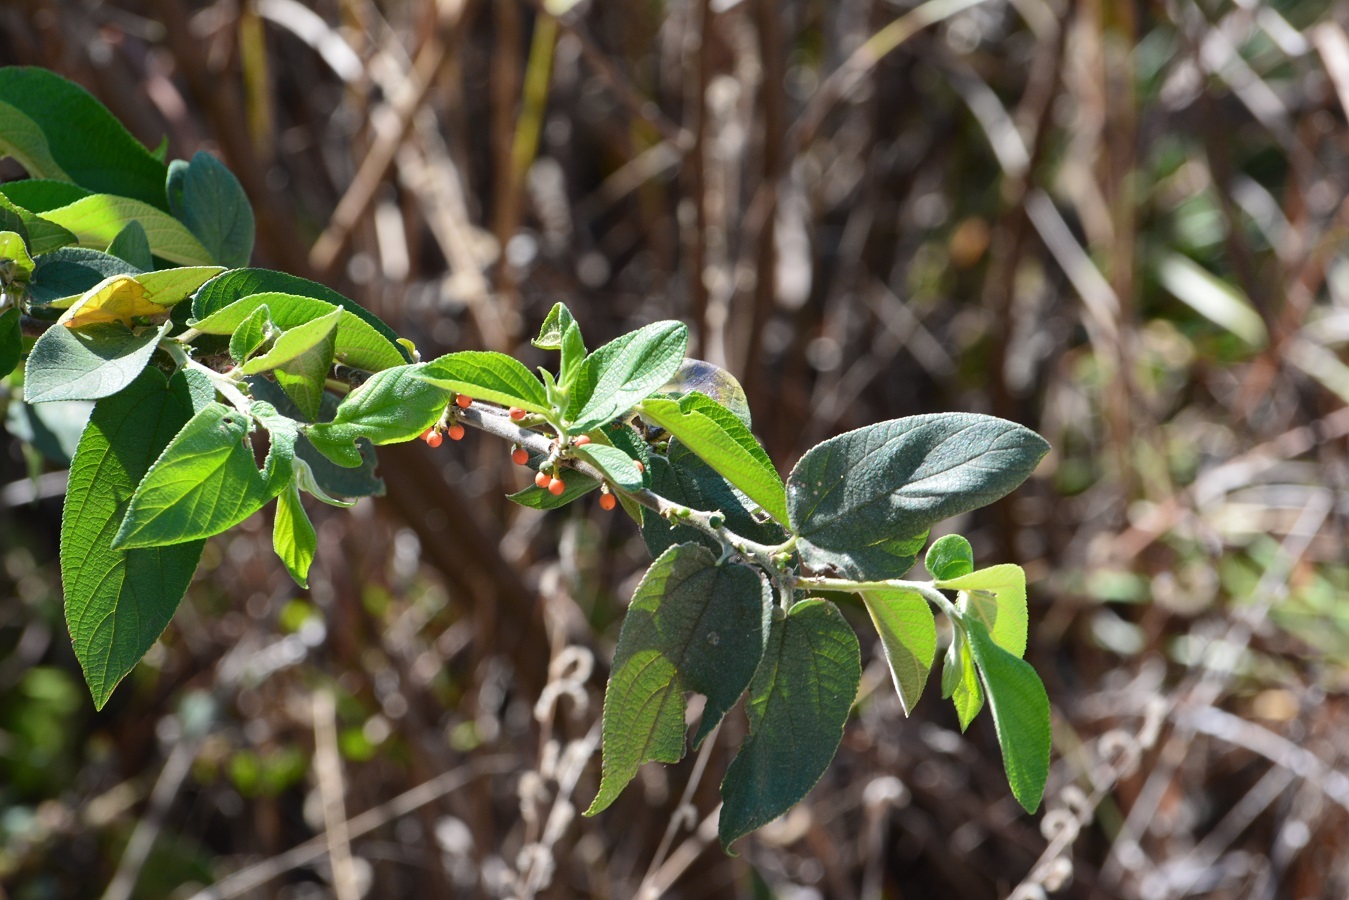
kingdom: Plantae
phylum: Tracheophyta
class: Magnoliopsida
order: Rosales
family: Cannabaceae
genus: Trema
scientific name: Trema micranthum
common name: Jamaican nettletree
